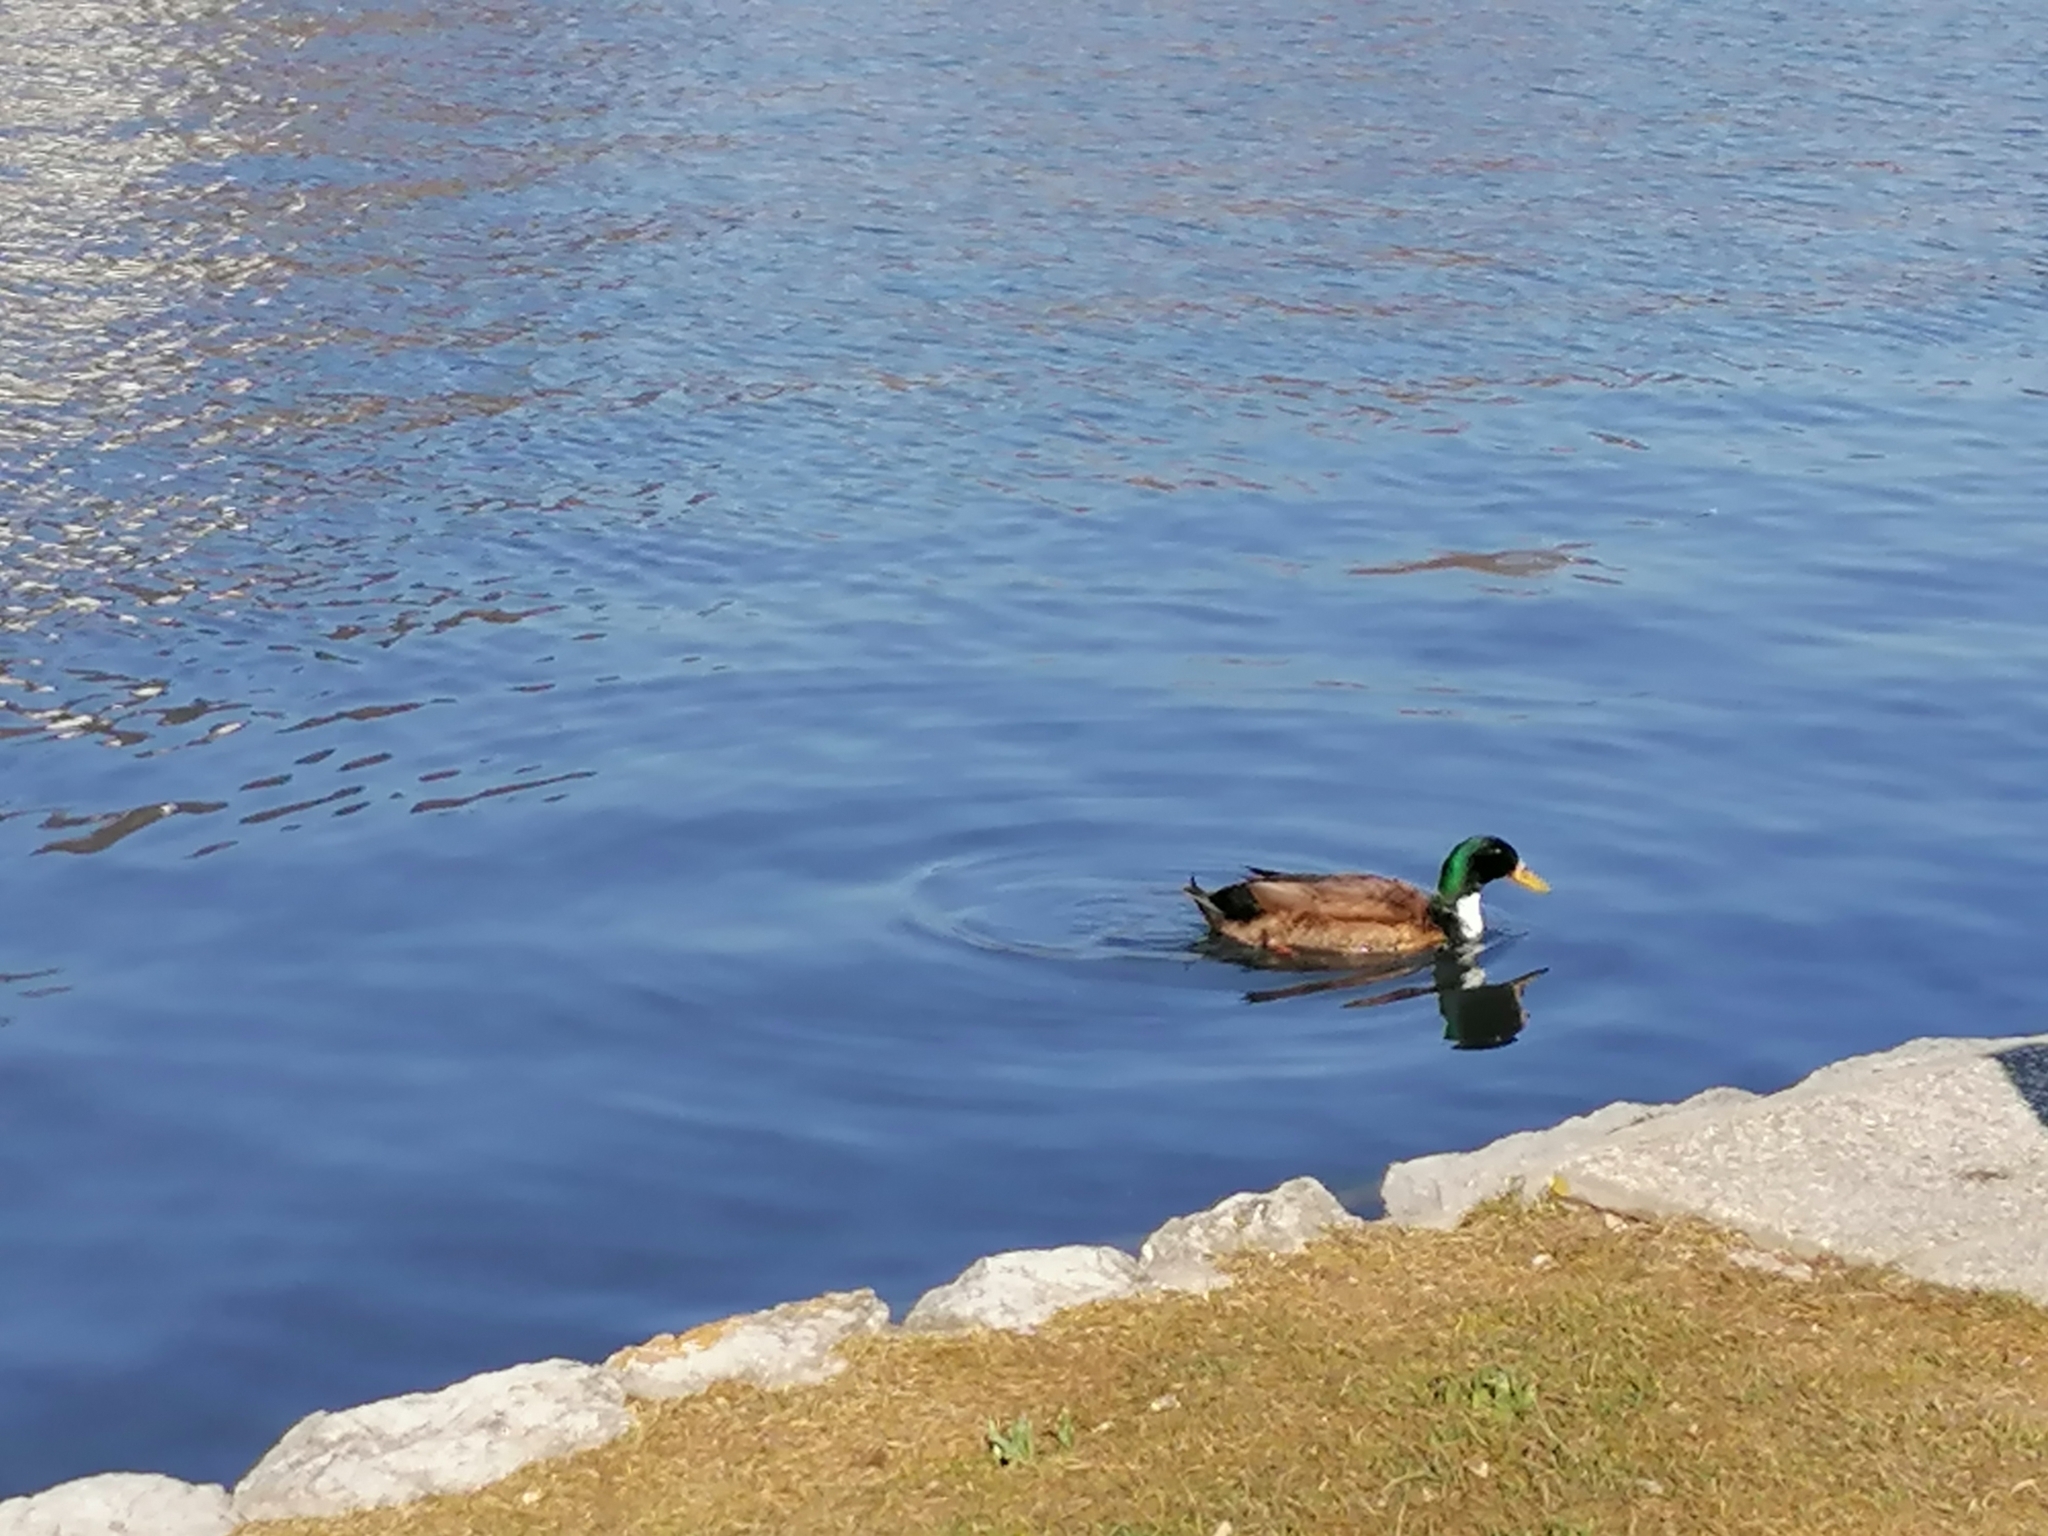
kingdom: Animalia
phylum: Chordata
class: Aves
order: Anseriformes
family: Anatidae
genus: Anas
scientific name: Anas platyrhynchos
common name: Mallard
